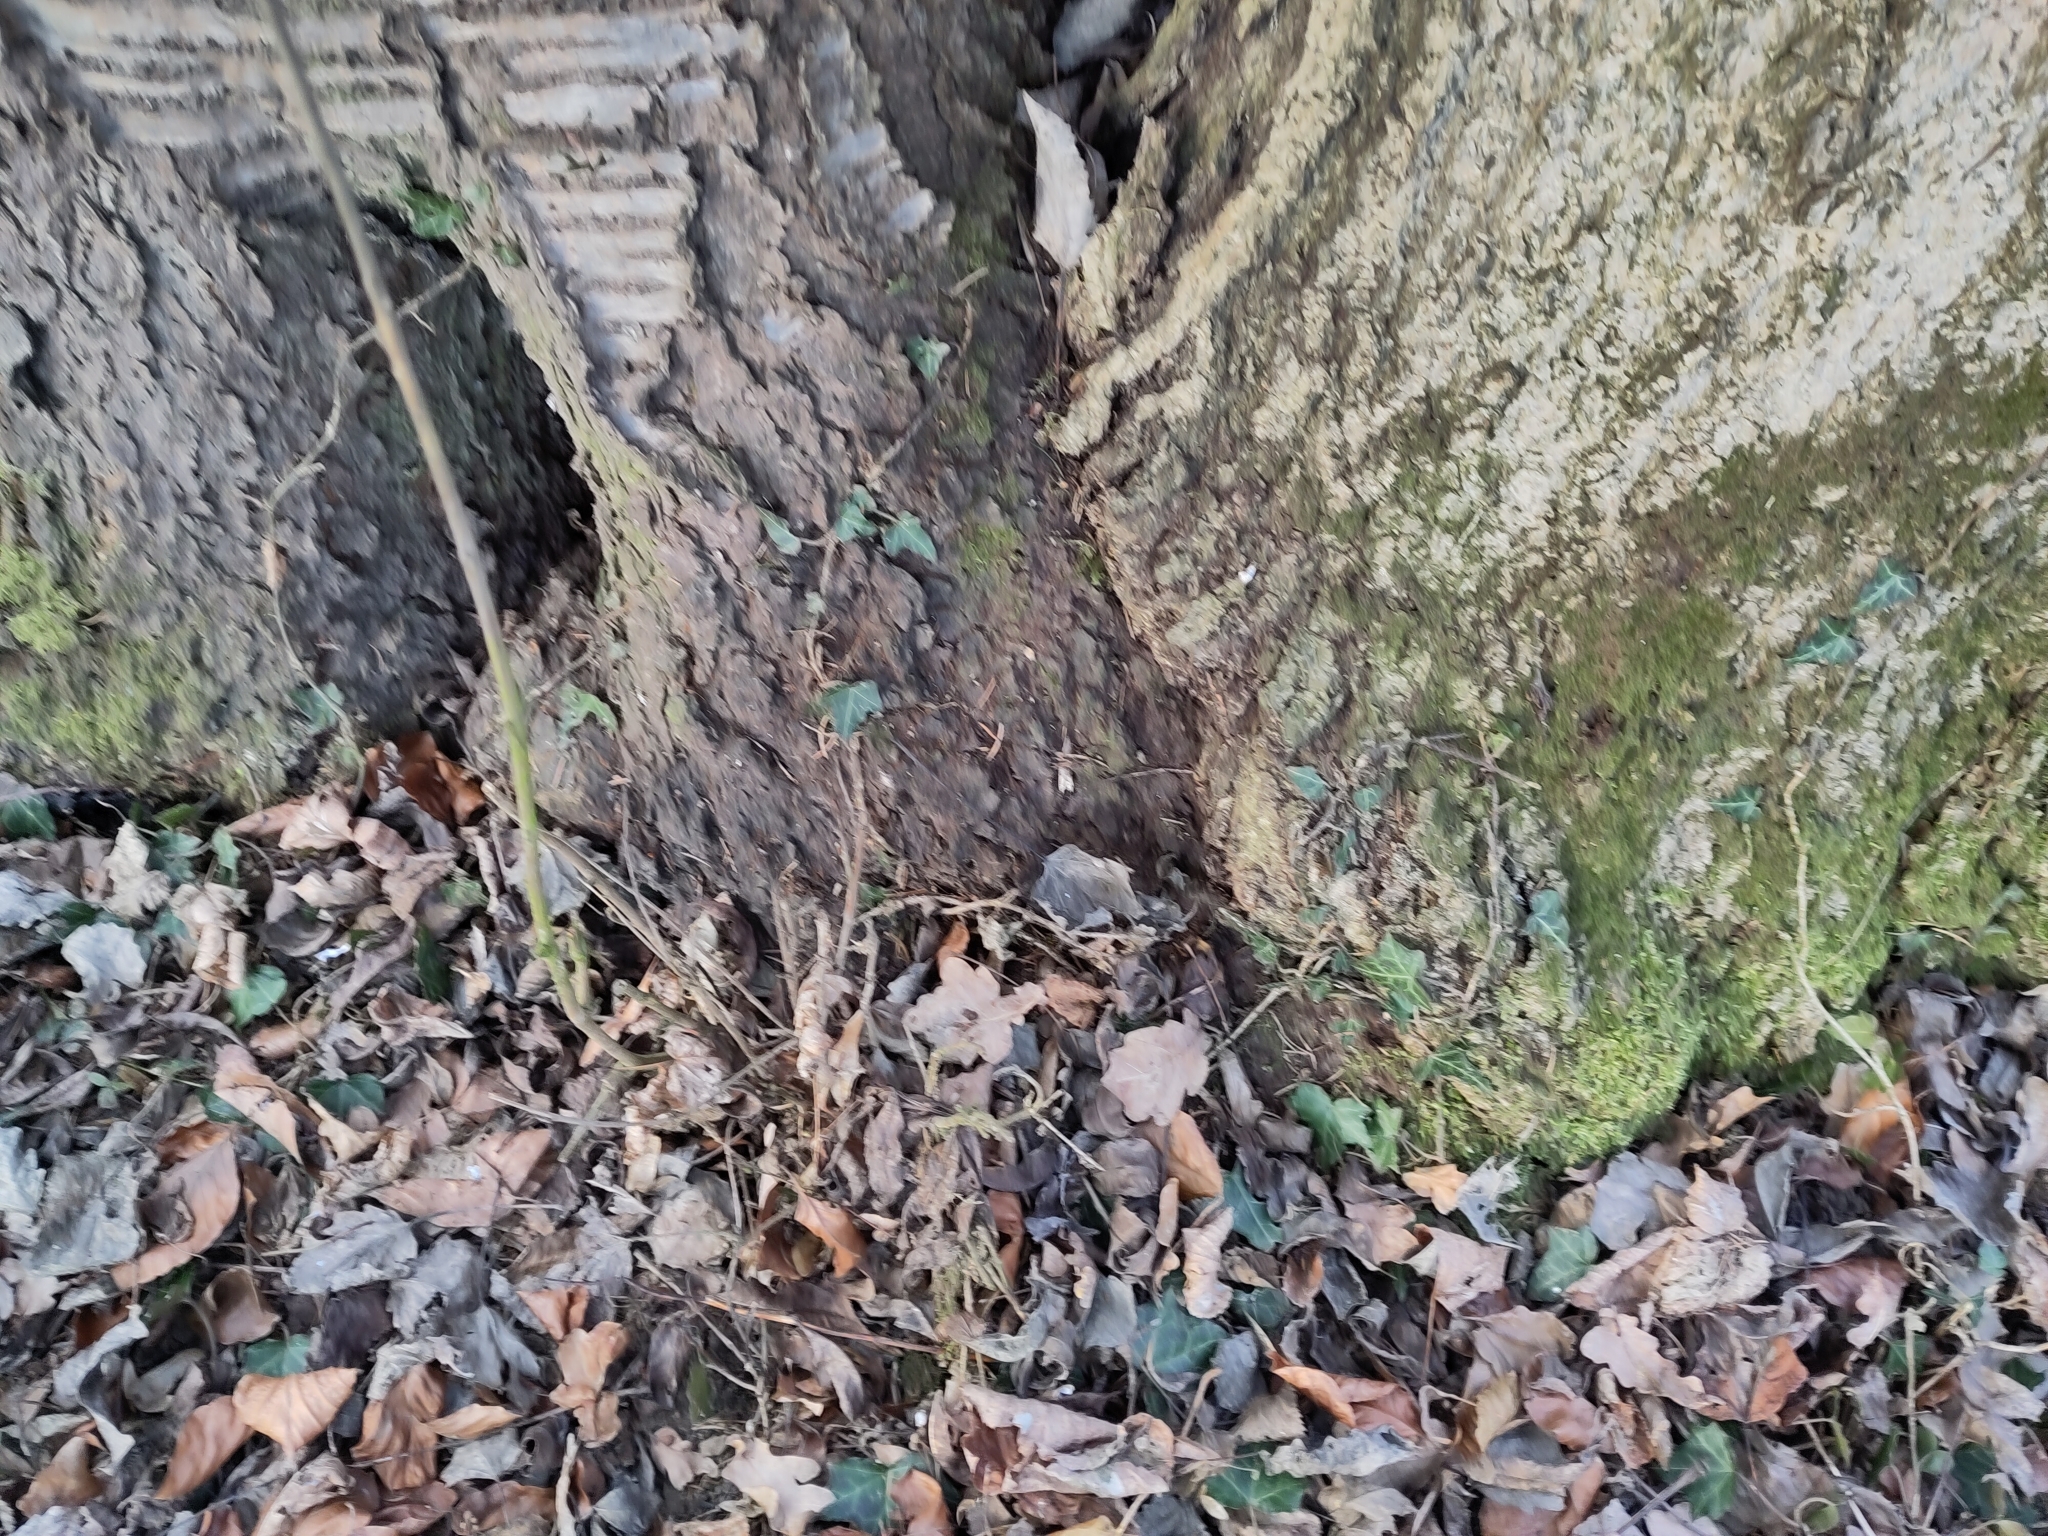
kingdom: Plantae
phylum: Tracheophyta
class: Magnoliopsida
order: Rosales
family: Rosaceae
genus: Prunus
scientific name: Prunus avium
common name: Sweet cherry
